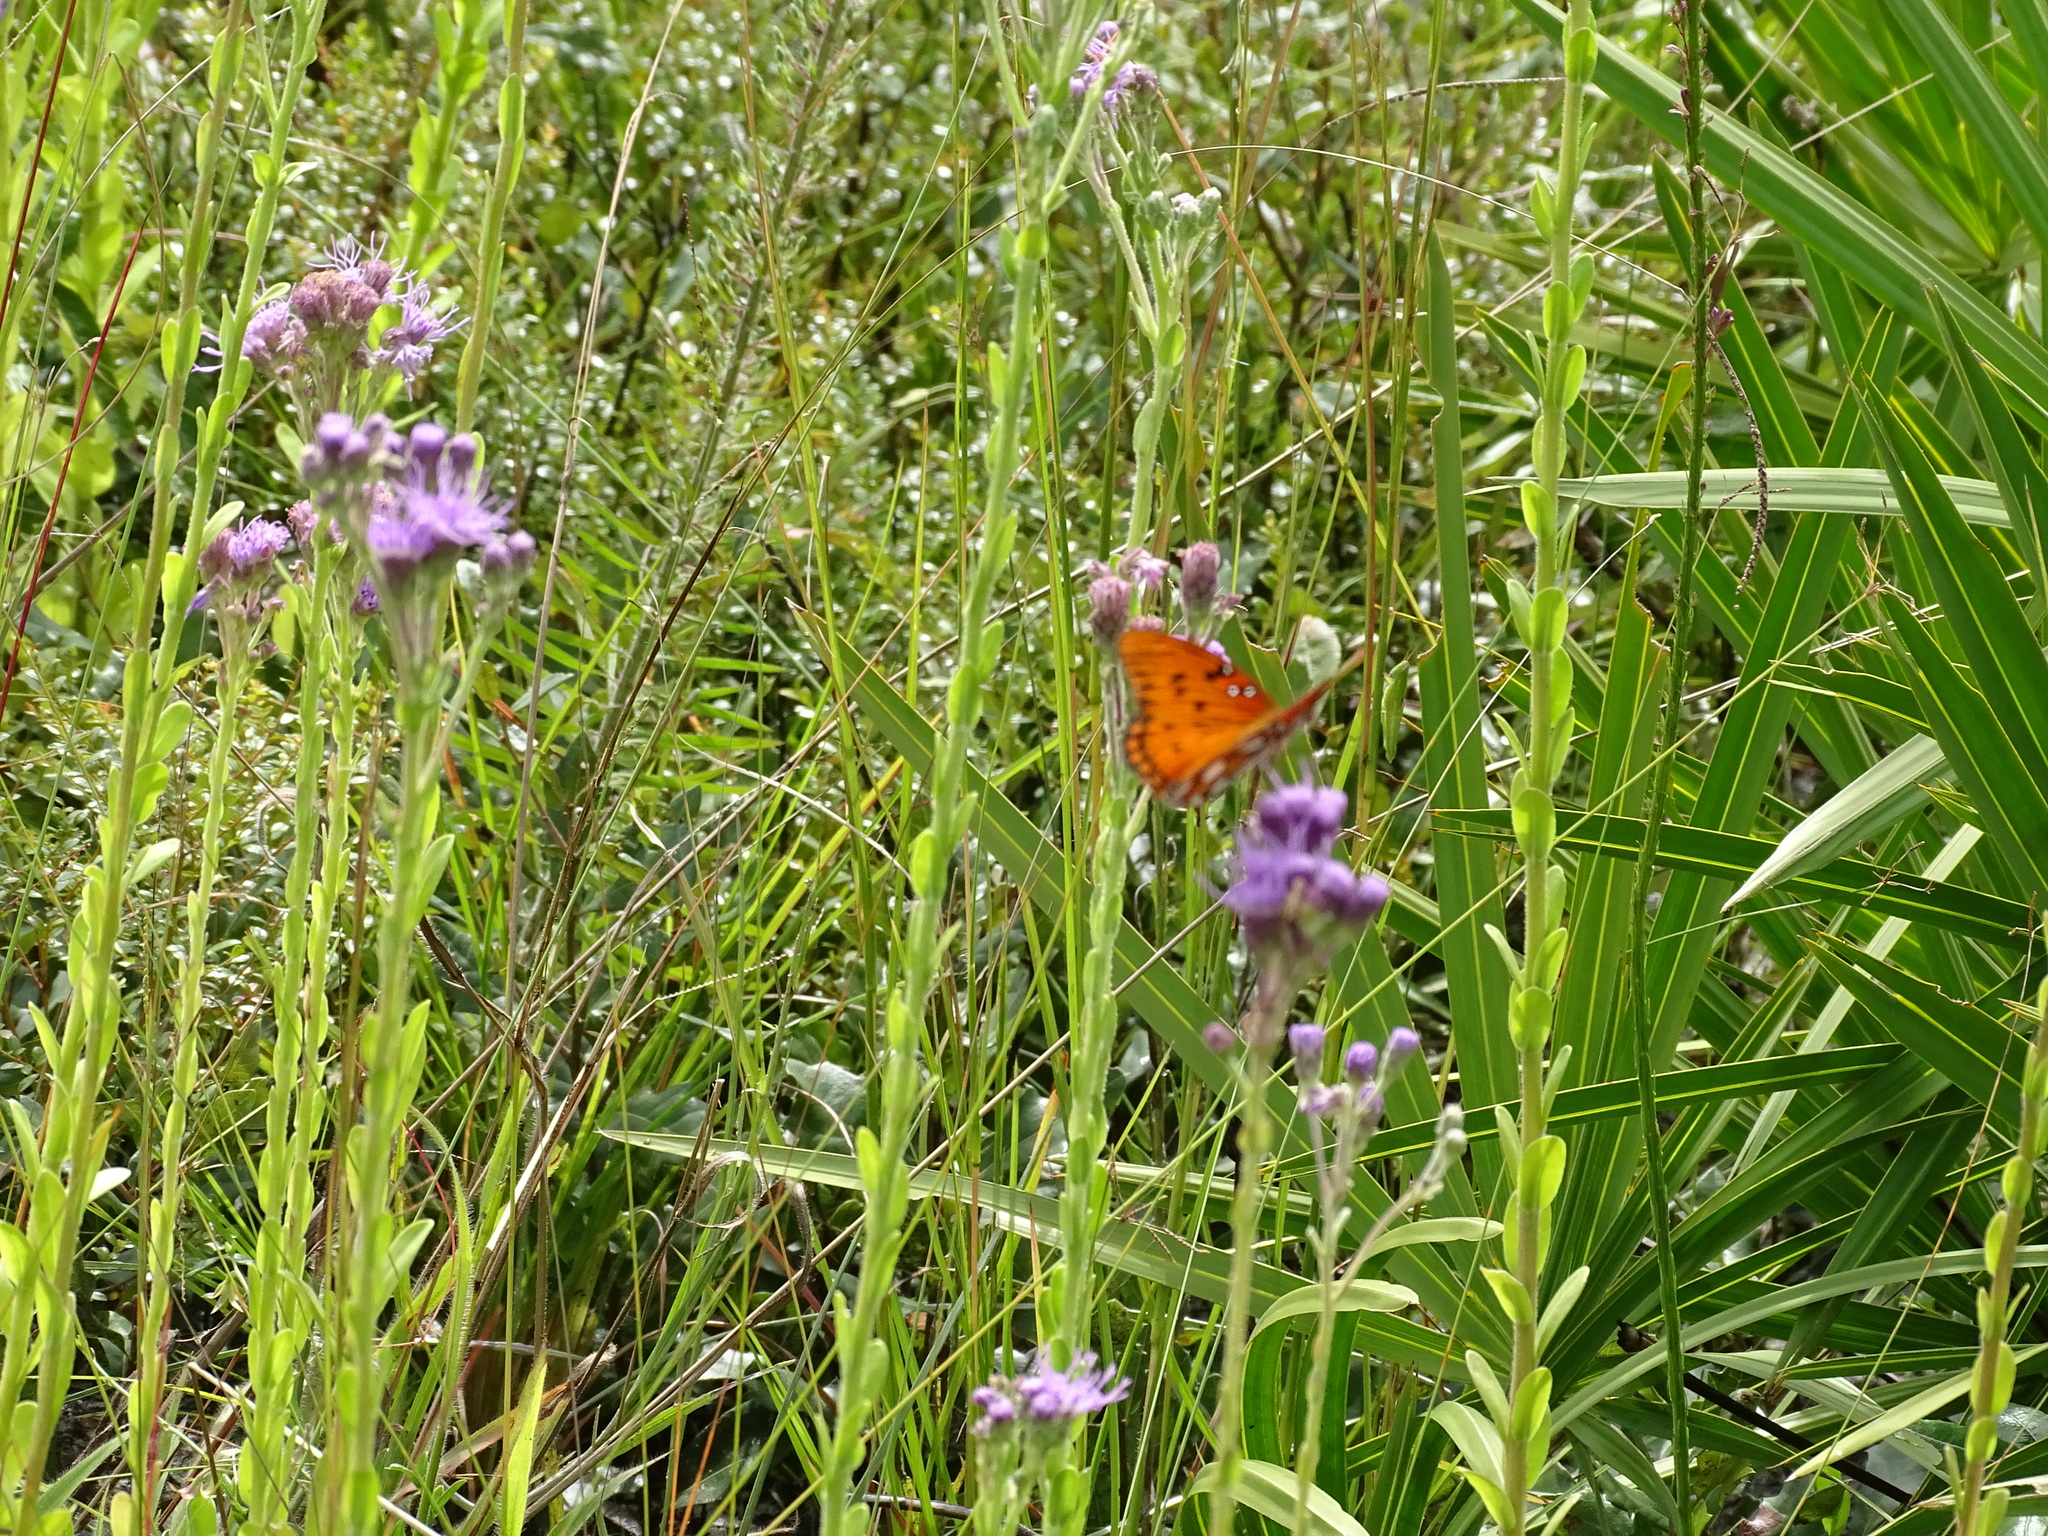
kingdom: Animalia
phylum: Arthropoda
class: Insecta
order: Lepidoptera
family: Nymphalidae
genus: Dione
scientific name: Dione vanillae
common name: Gulf fritillary
